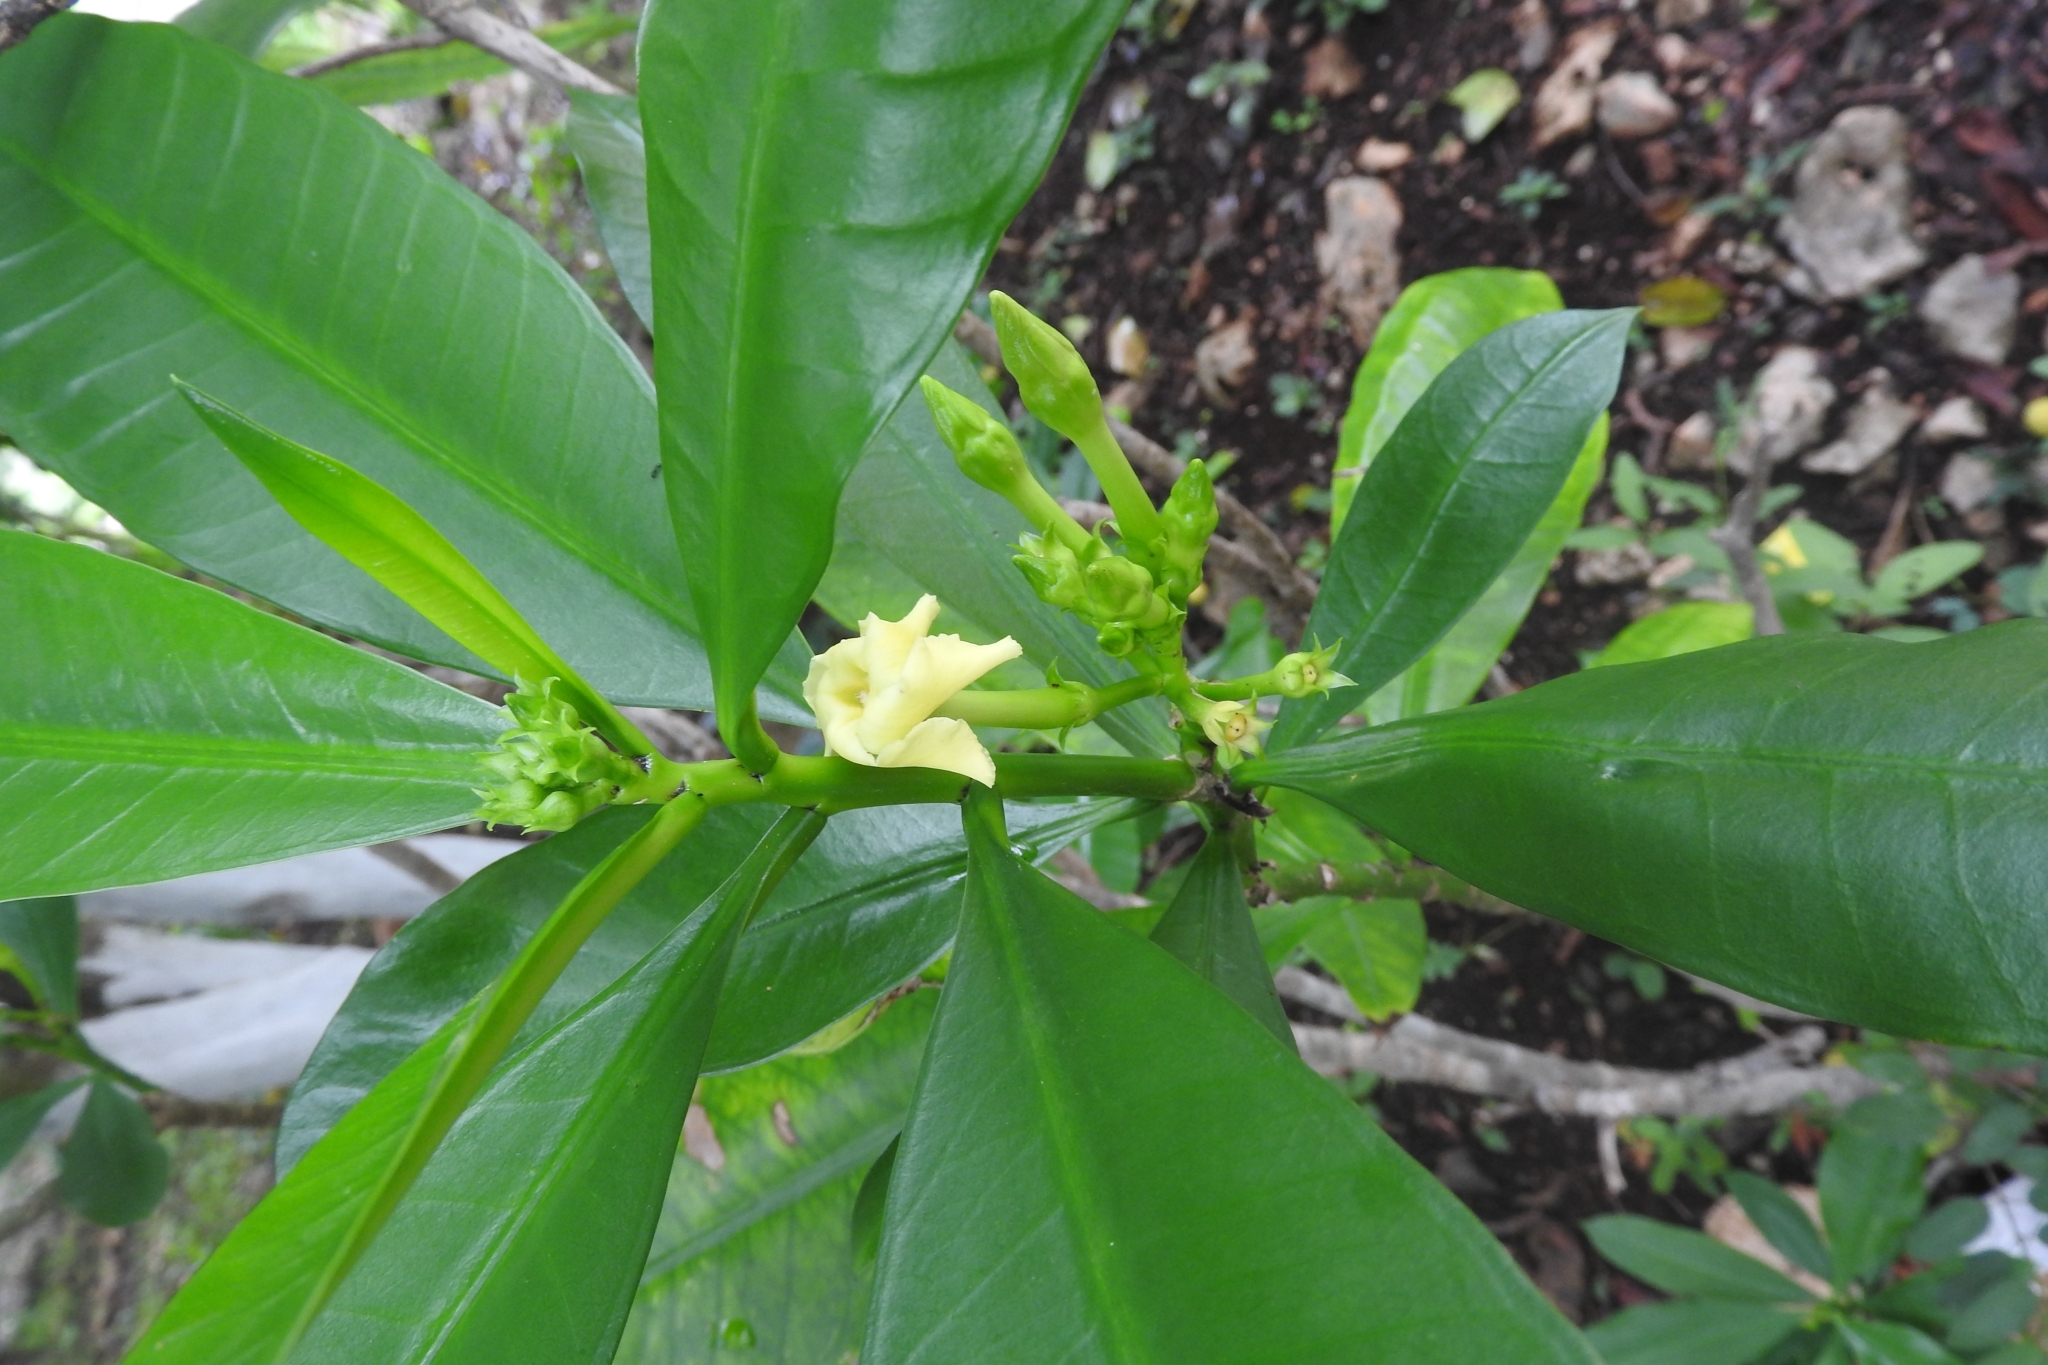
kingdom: Plantae
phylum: Tracheophyta
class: Magnoliopsida
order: Gentianales
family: Apocynaceae
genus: Thevetia
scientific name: Thevetia ahouai
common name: Broadleaf thevetia
